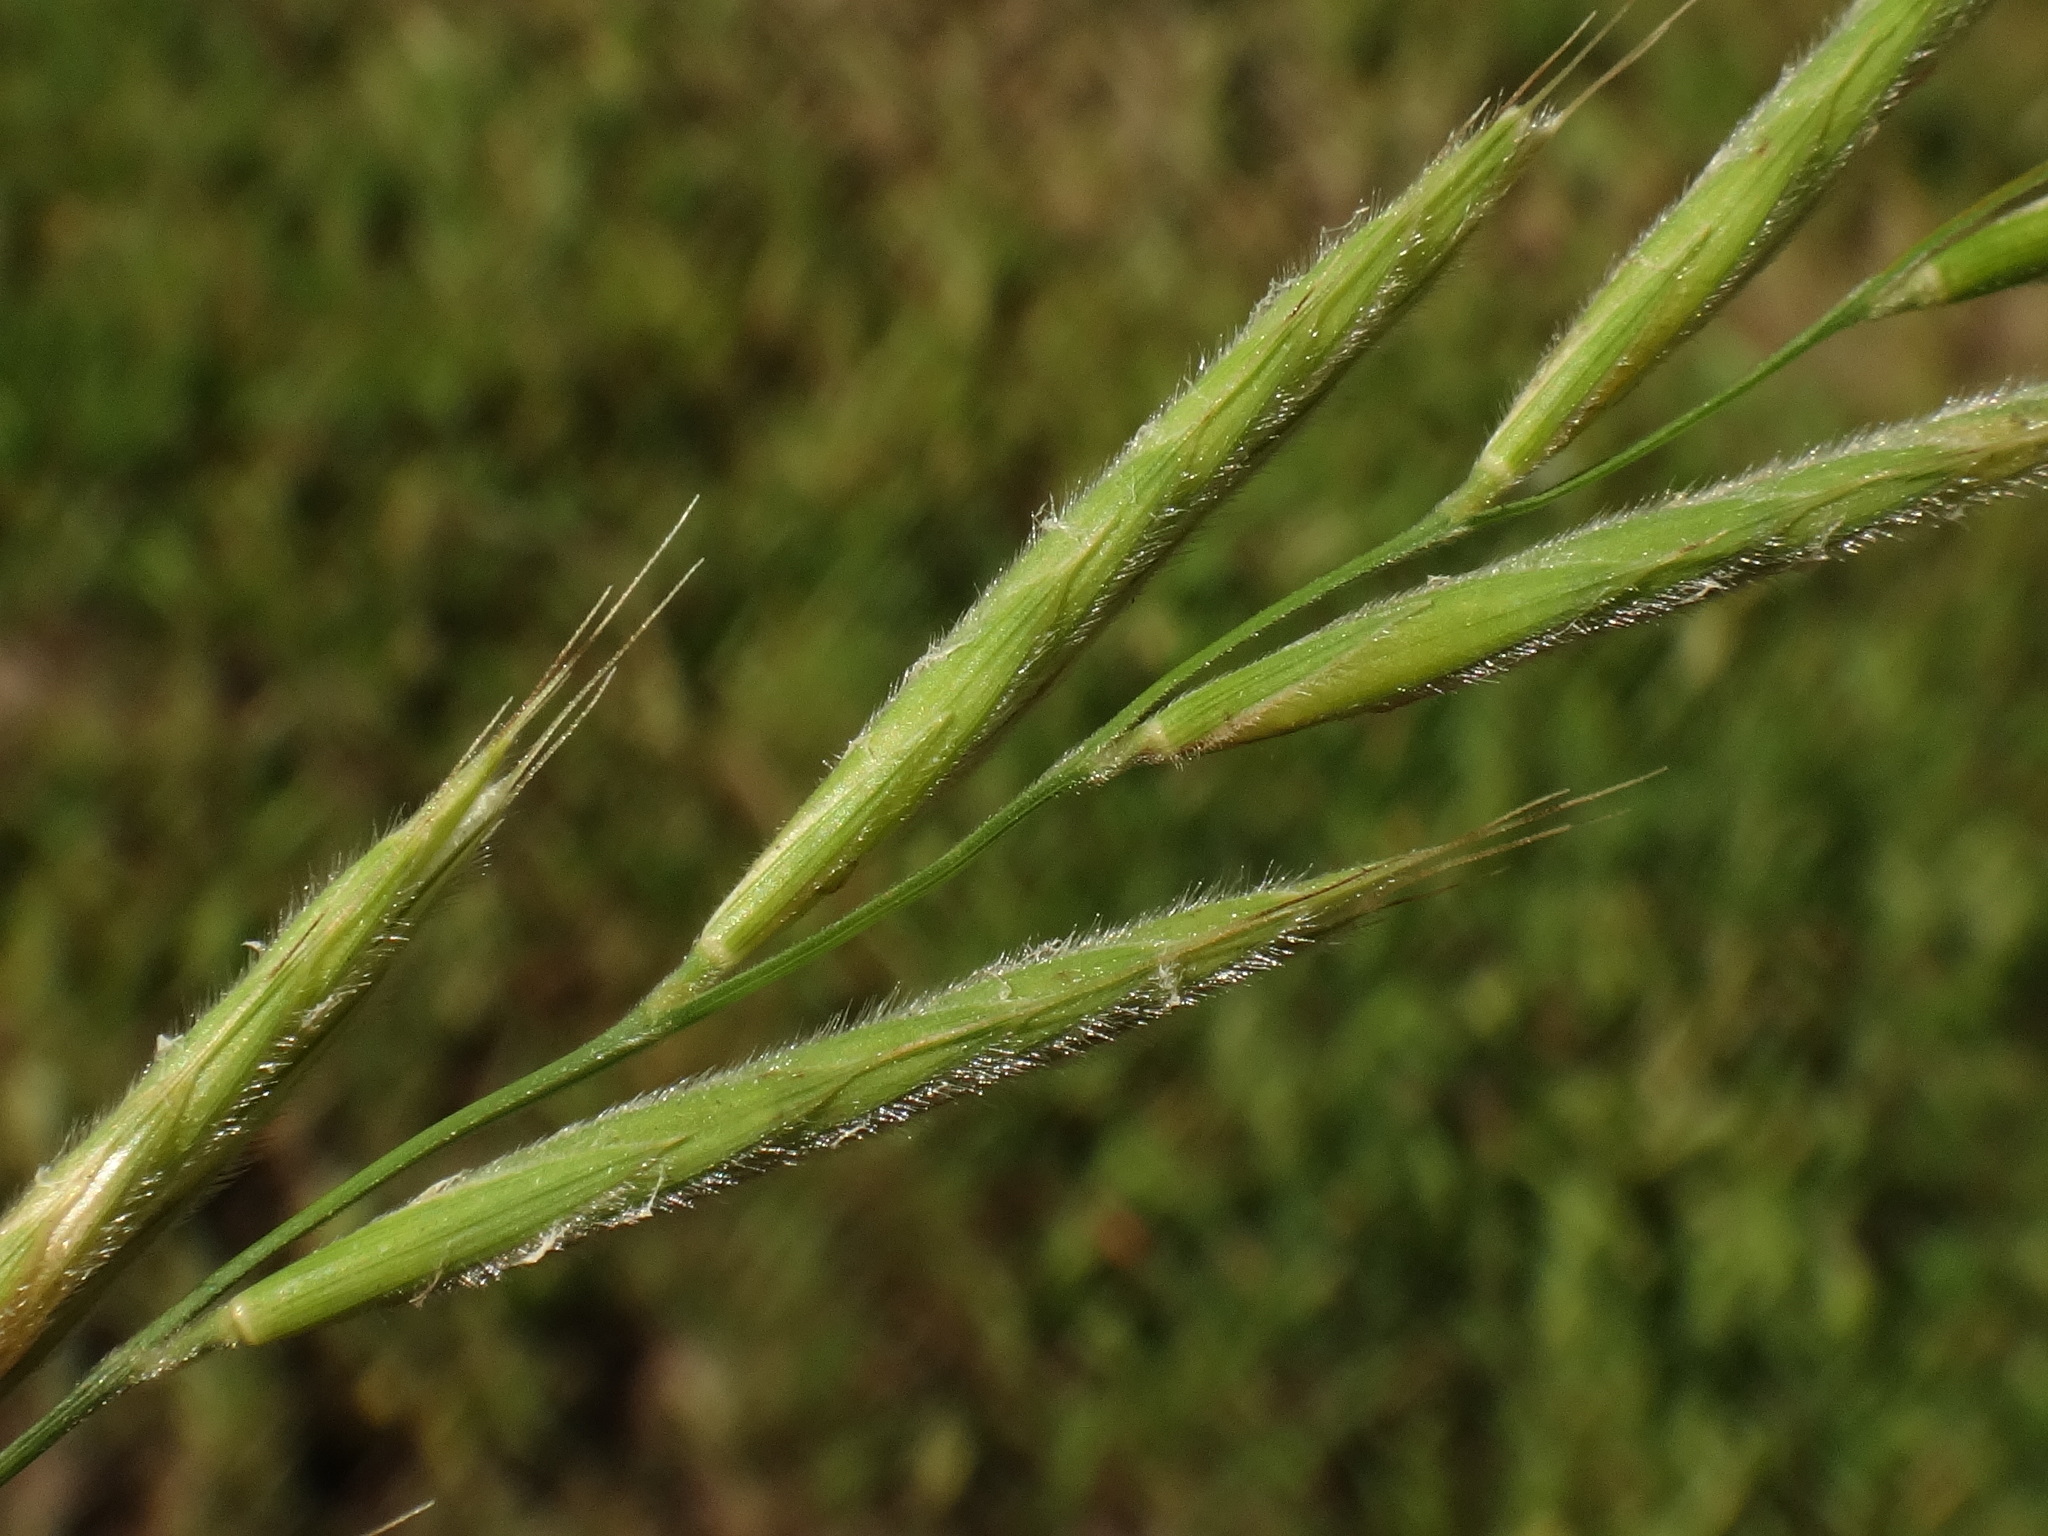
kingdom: Plantae
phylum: Tracheophyta
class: Liliopsida
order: Poales
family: Poaceae
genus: Brachypodium
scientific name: Brachypodium pinnatum
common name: Tor grass
